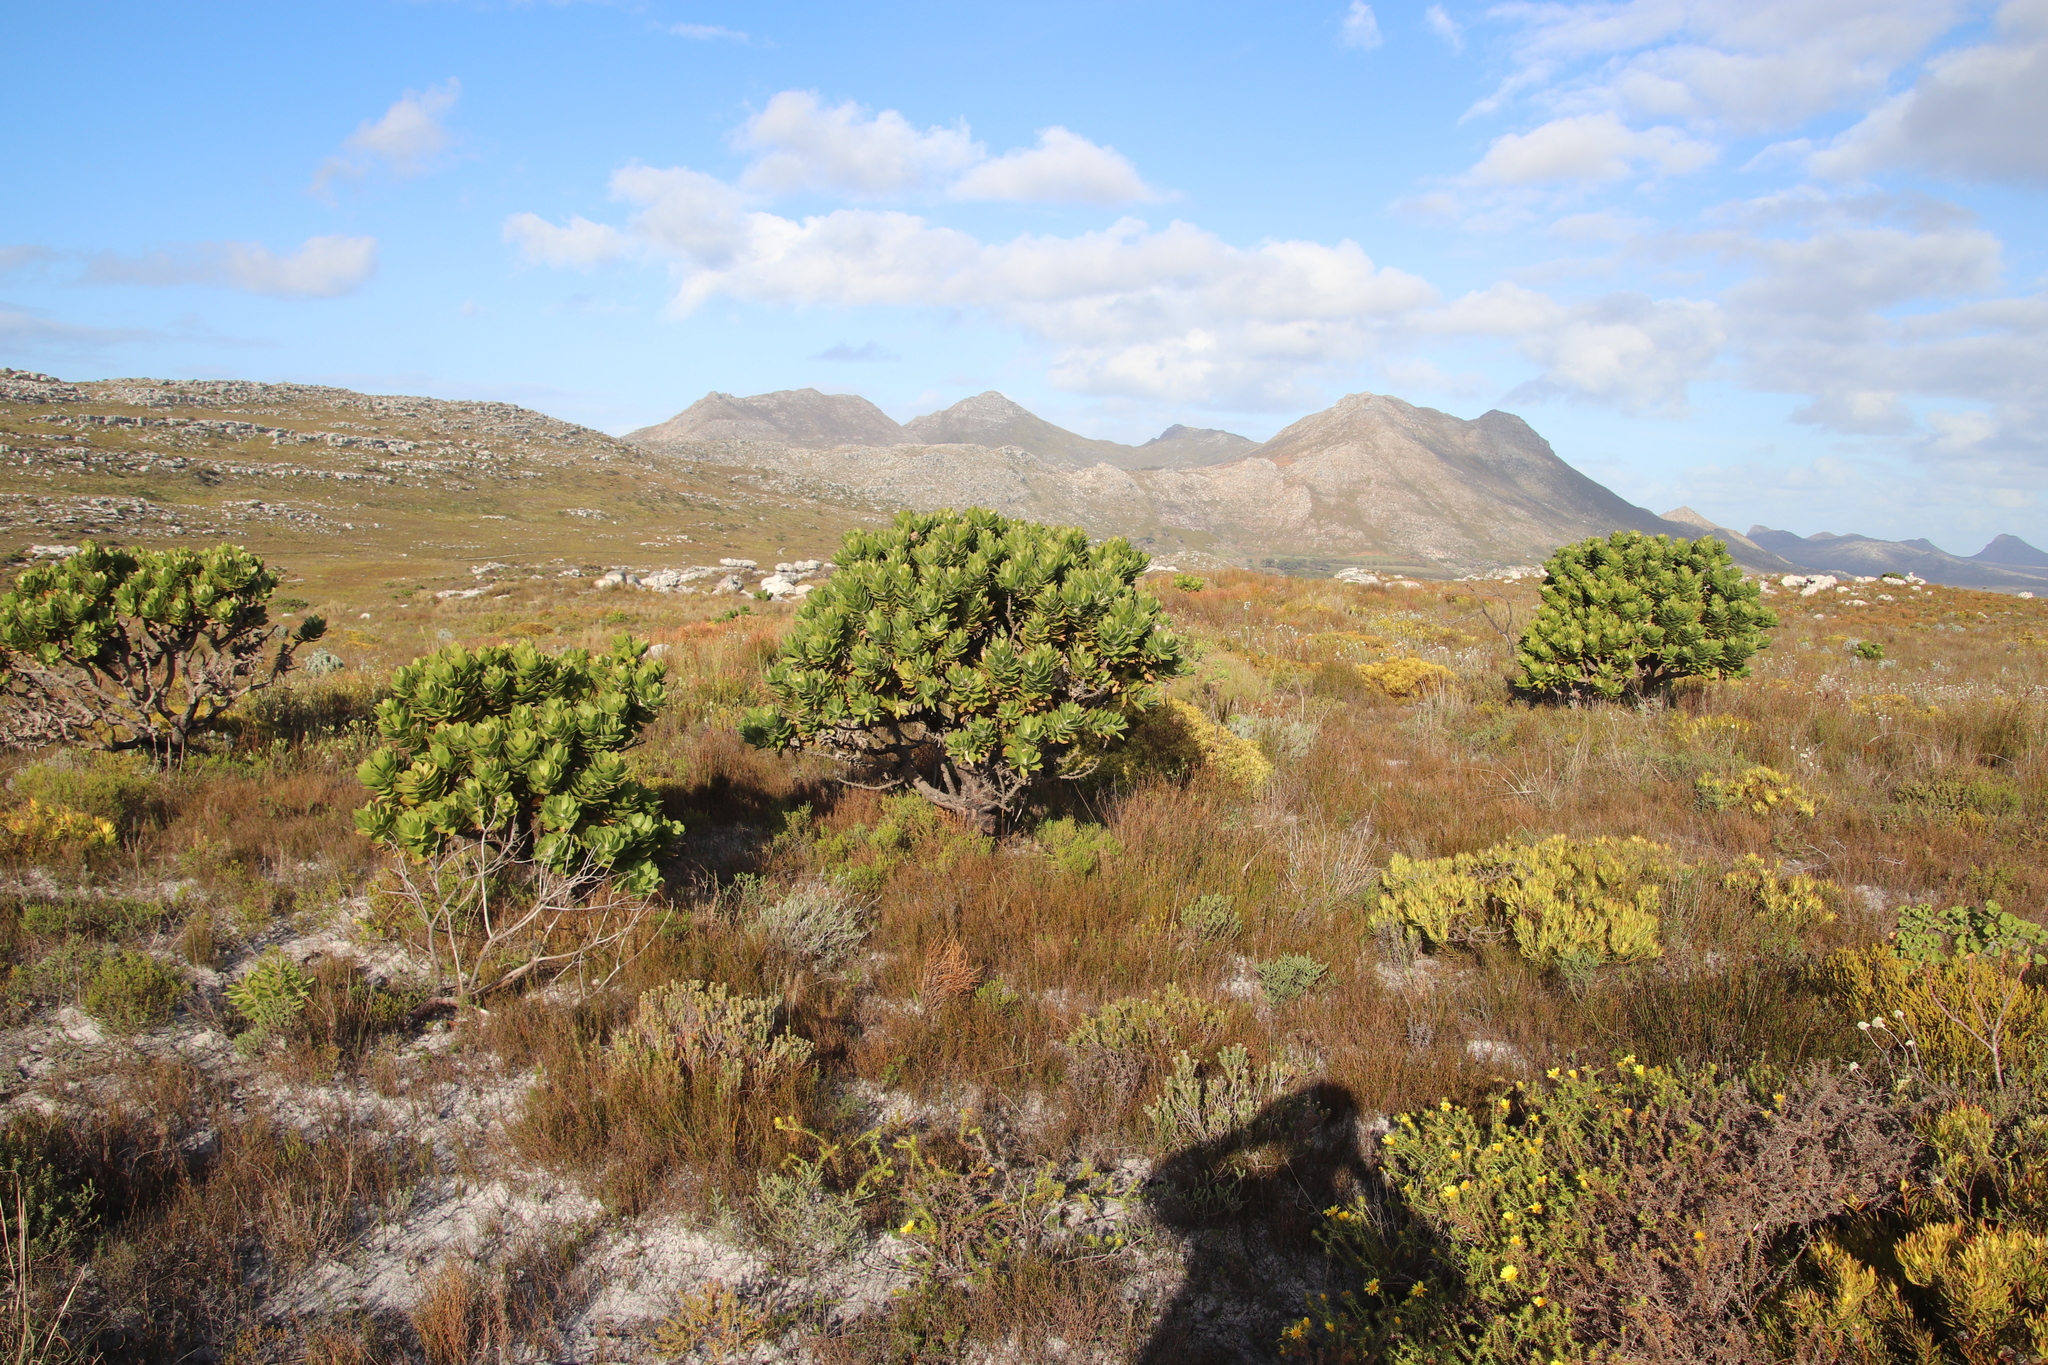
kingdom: Plantae
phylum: Tracheophyta
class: Magnoliopsida
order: Proteales
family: Proteaceae
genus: Leucospermum
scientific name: Leucospermum conocarpodendron
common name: Tree pincushion
